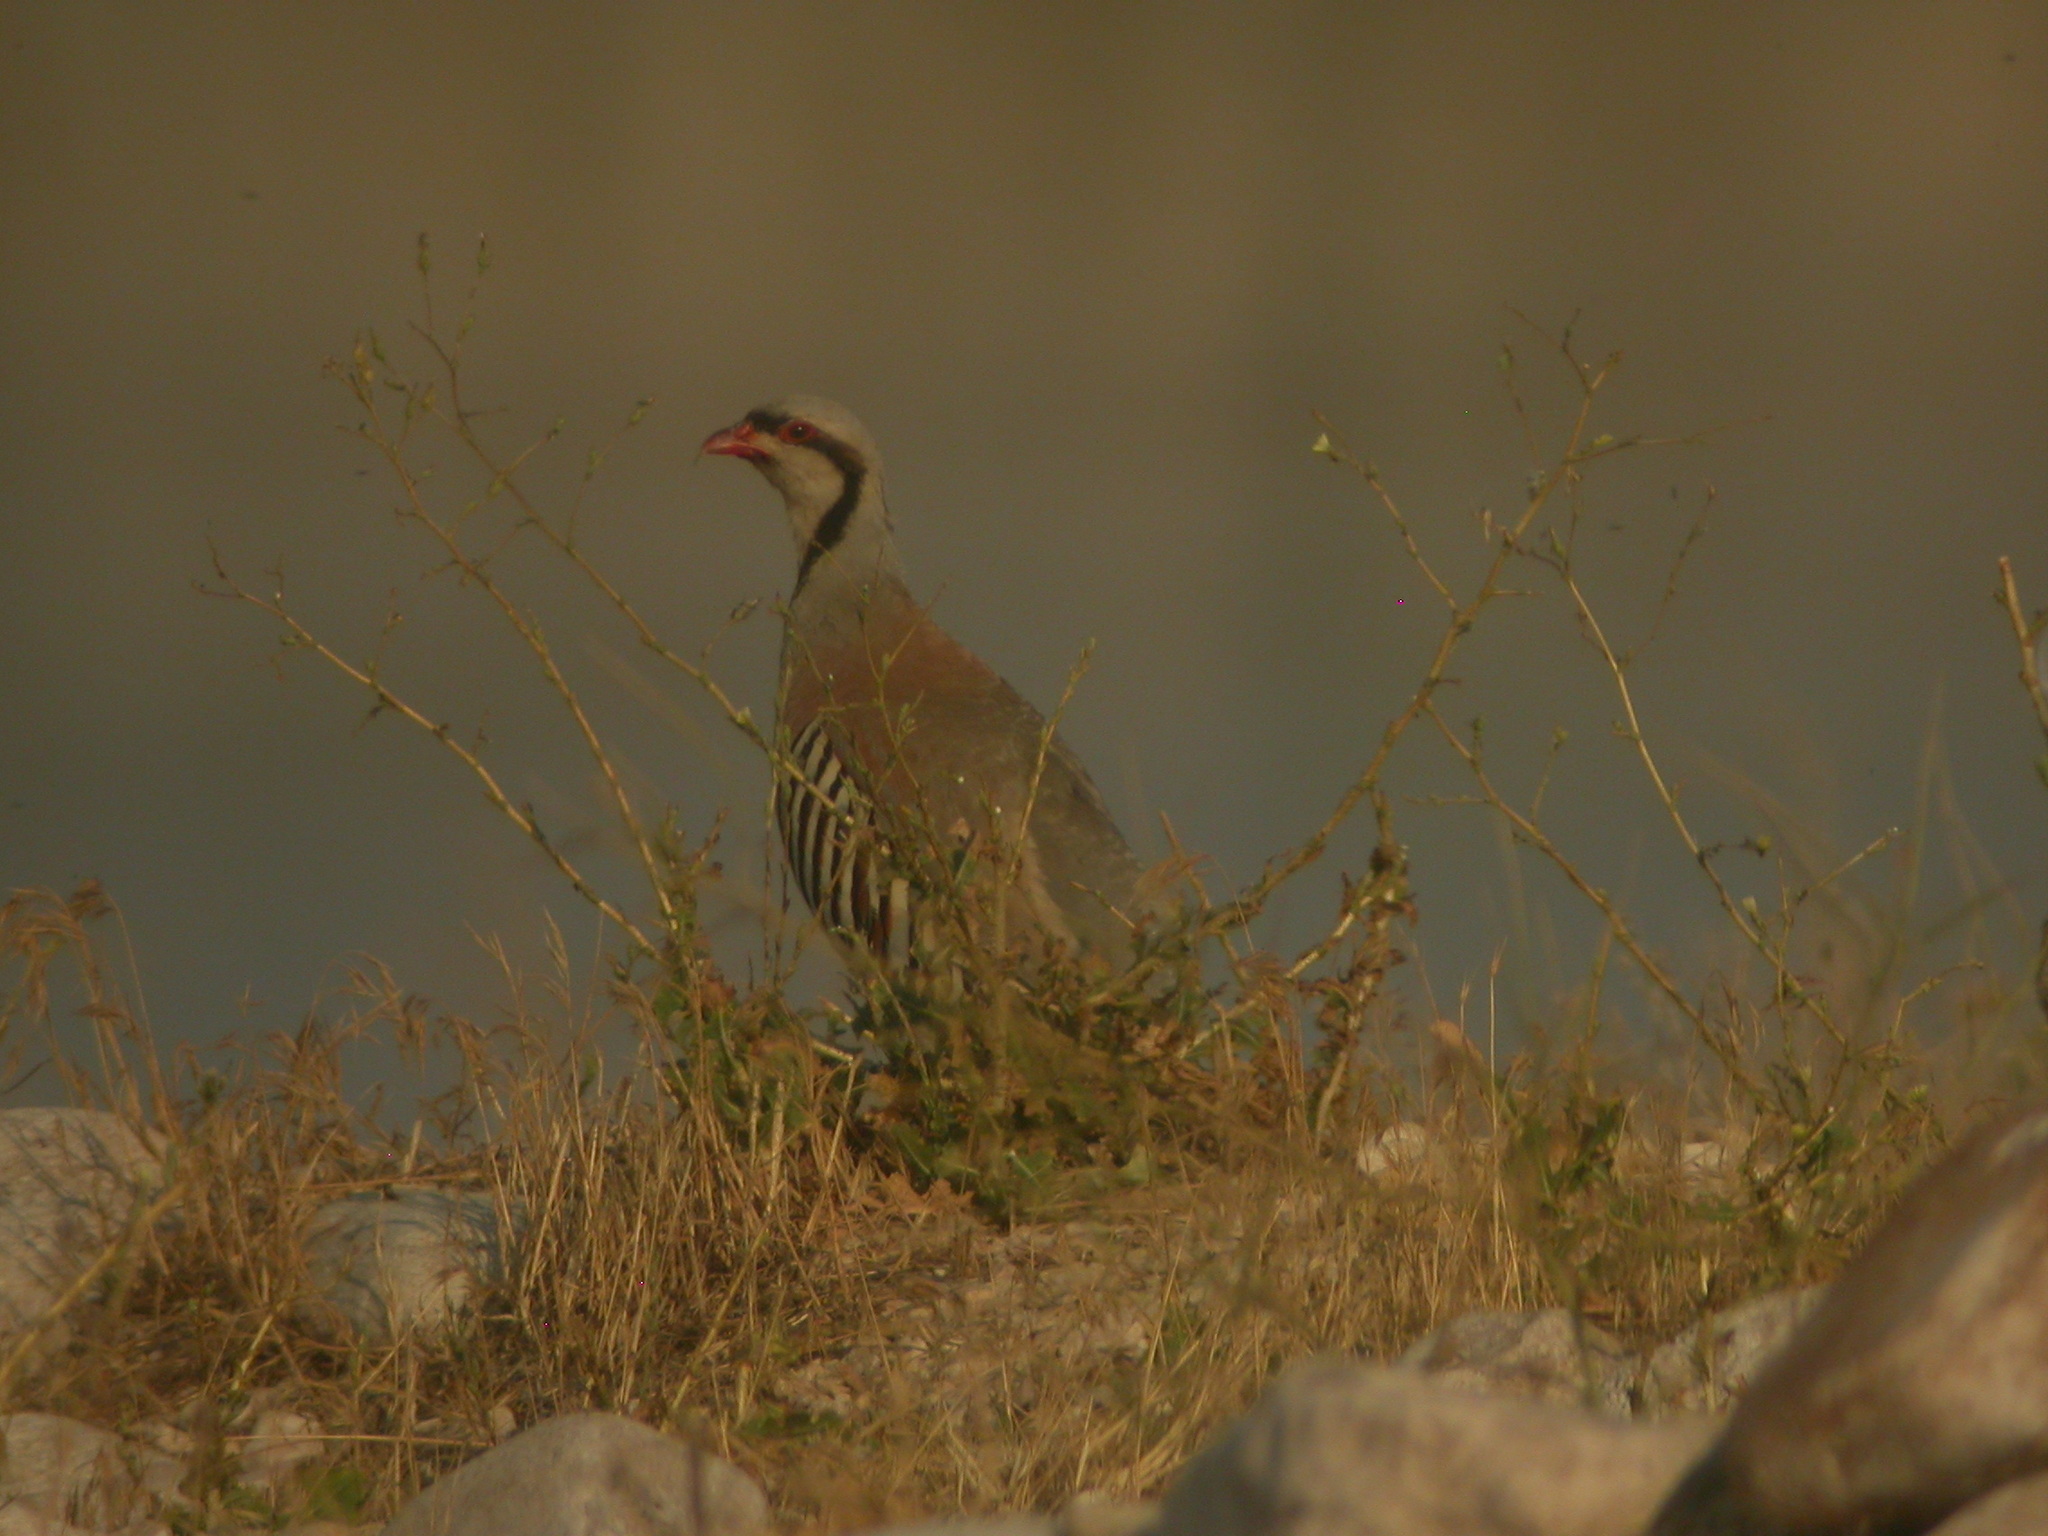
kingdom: Animalia
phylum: Chordata
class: Aves
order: Galliformes
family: Phasianidae
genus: Alectoris
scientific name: Alectoris chukar
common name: Chukar
